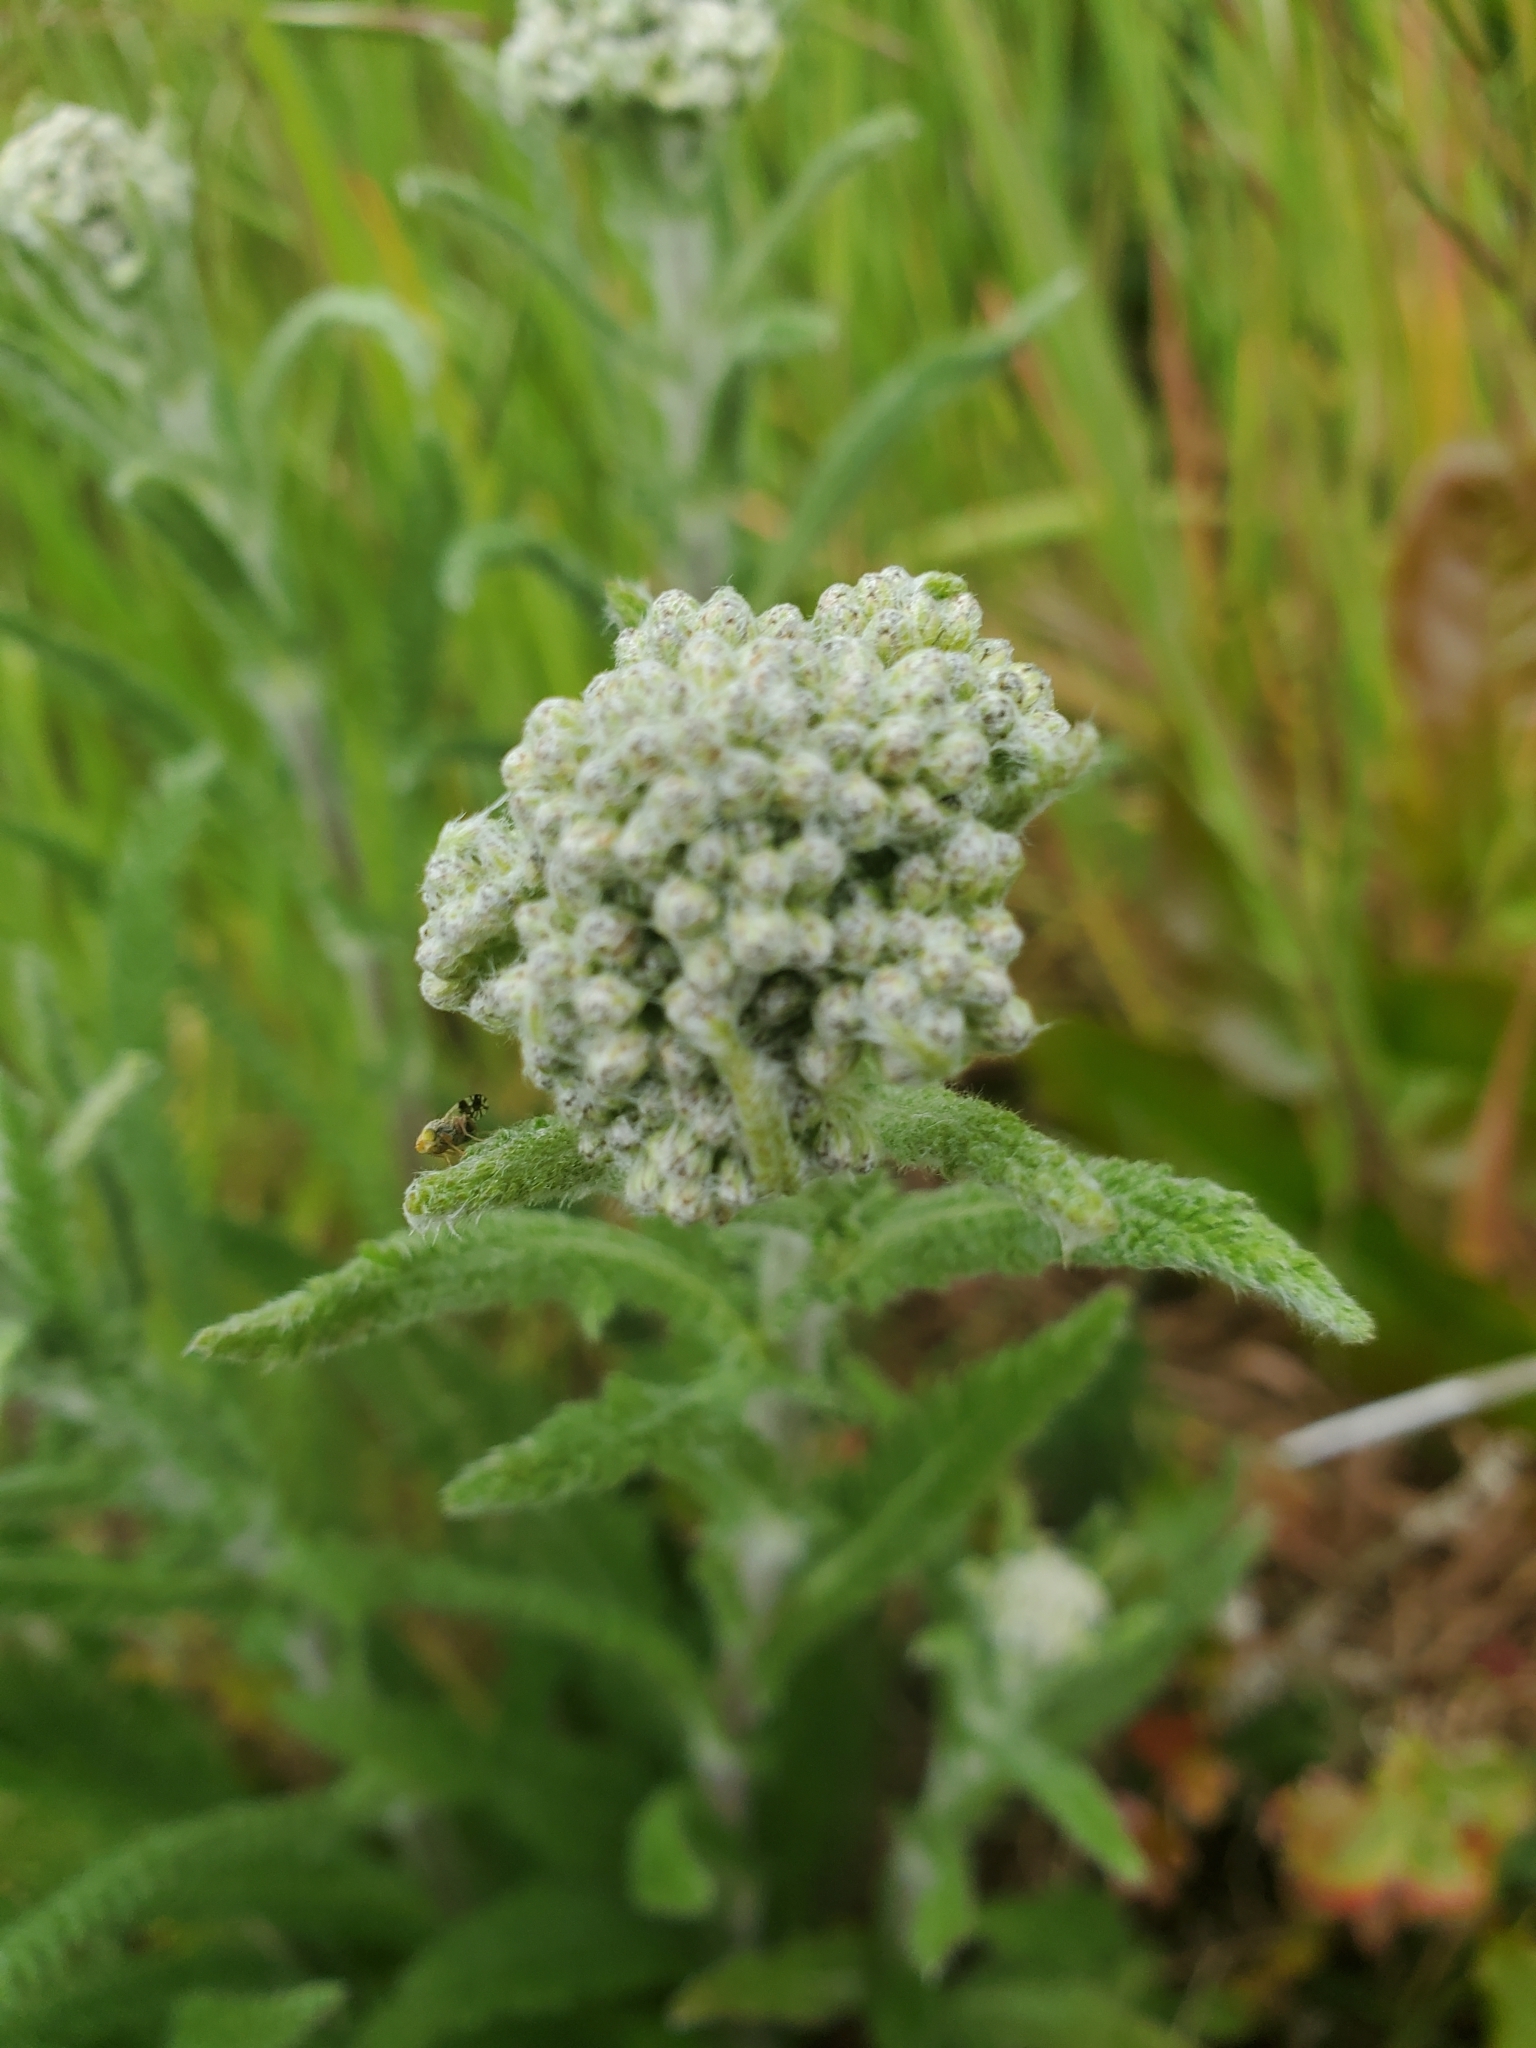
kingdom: Plantae
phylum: Tracheophyta
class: Magnoliopsida
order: Asterales
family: Asteraceae
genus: Achillea
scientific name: Achillea millefolium
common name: Yarrow
